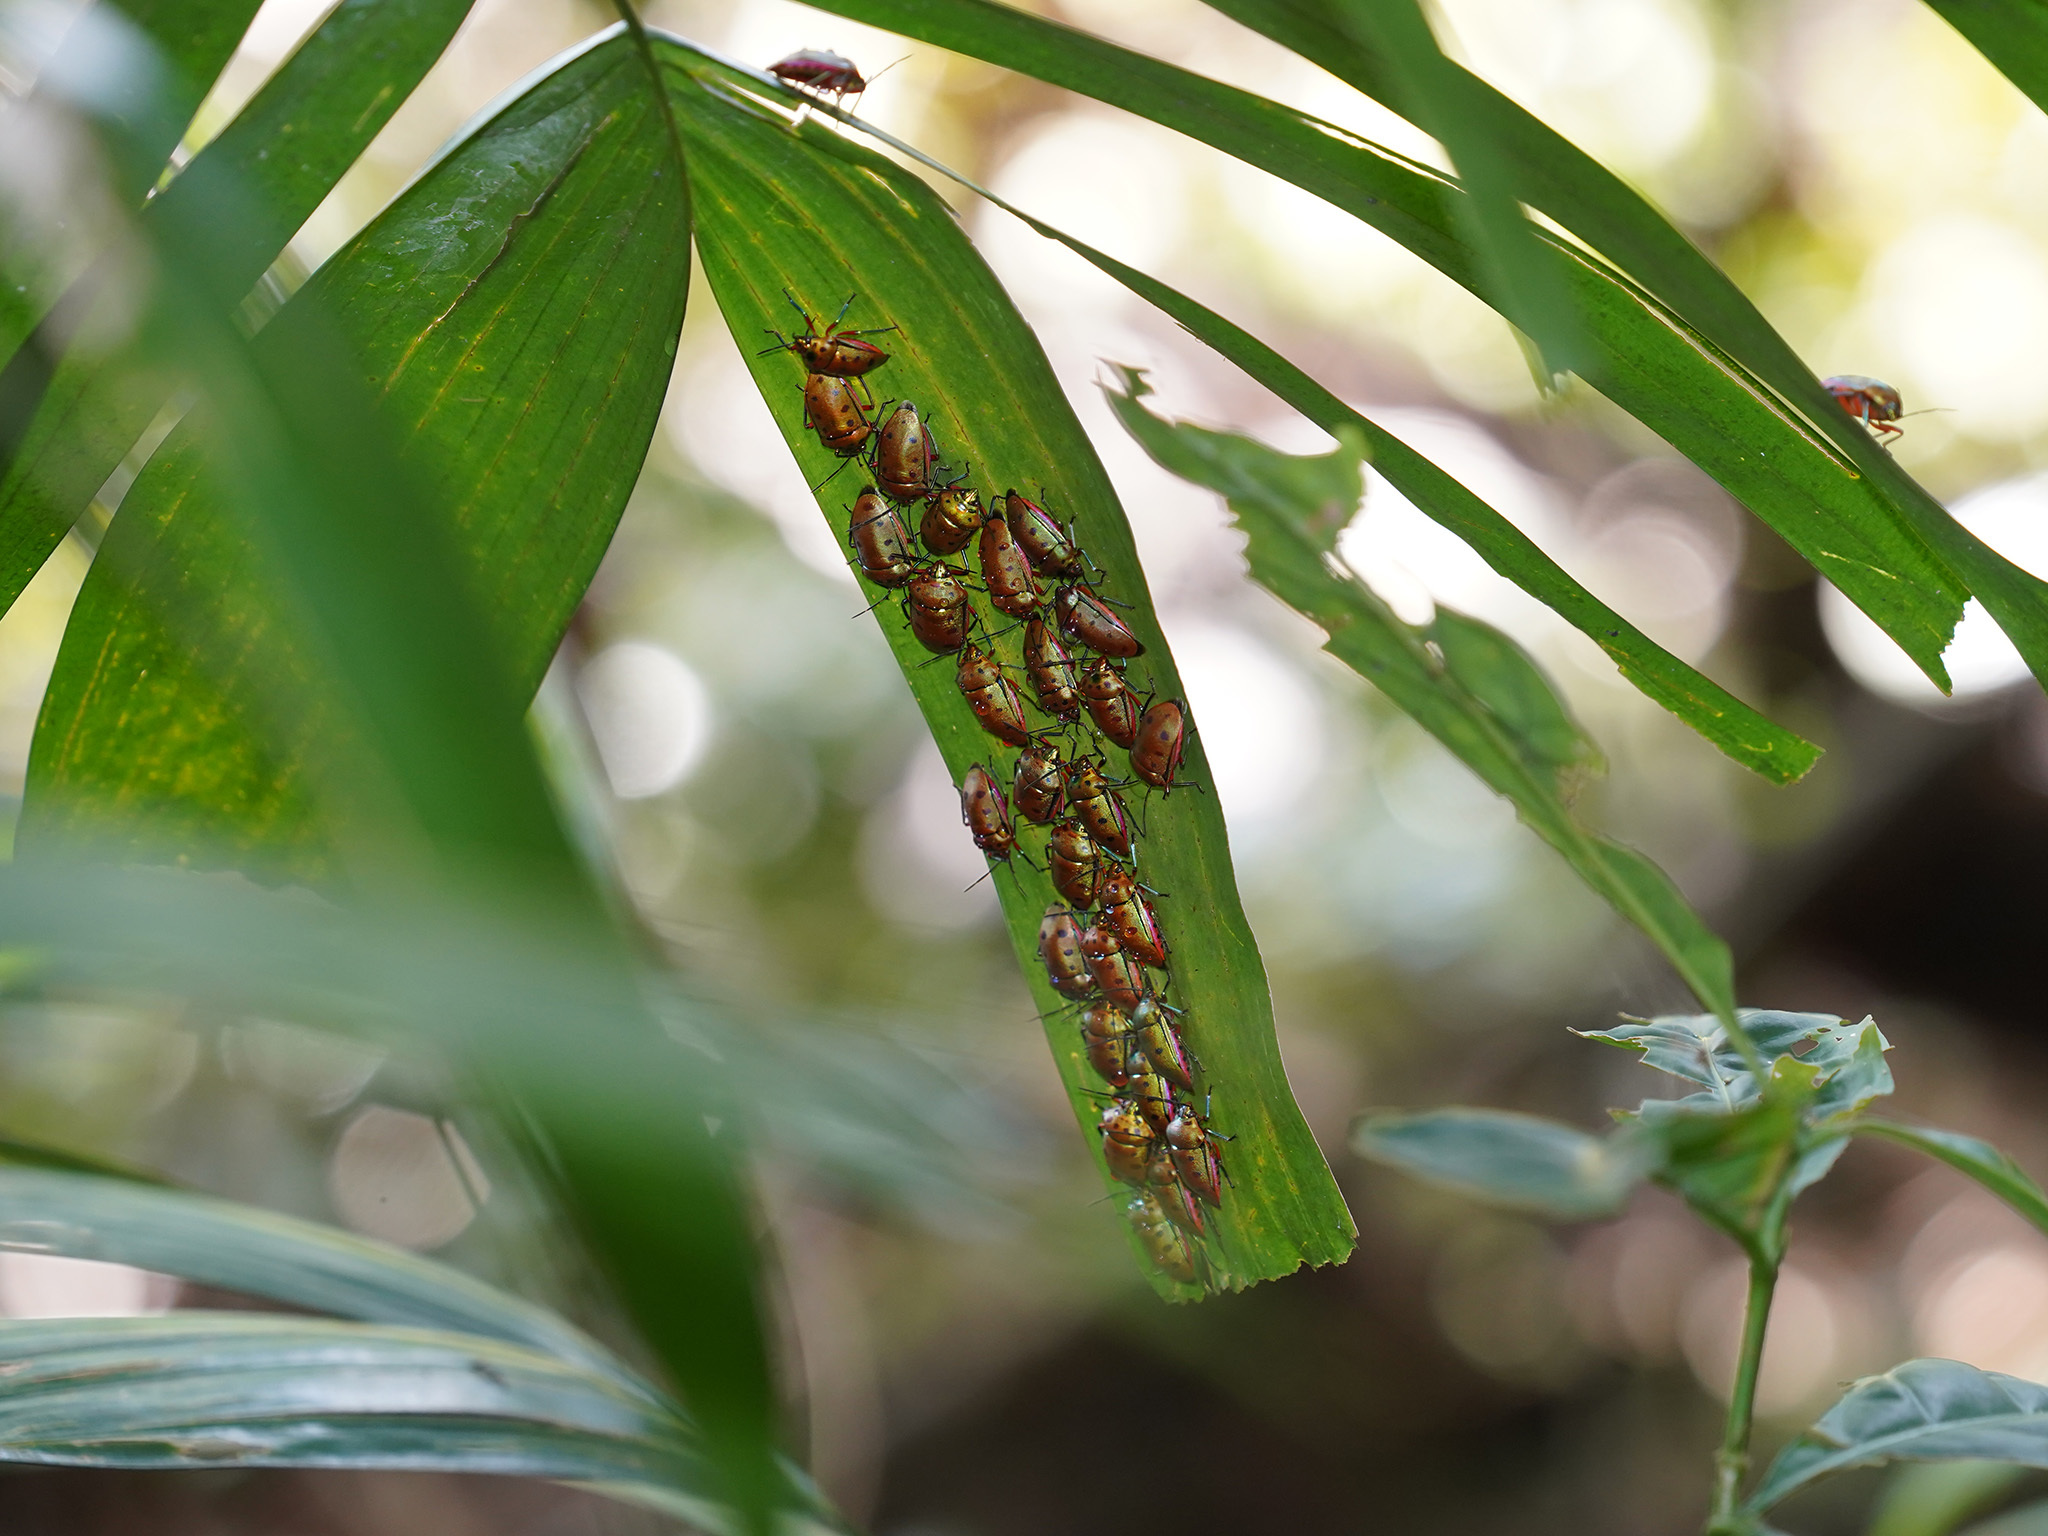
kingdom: Animalia
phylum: Arthropoda
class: Insecta
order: Hemiptera
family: Scutelleridae
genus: Calliphara
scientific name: Calliphara nobilis
